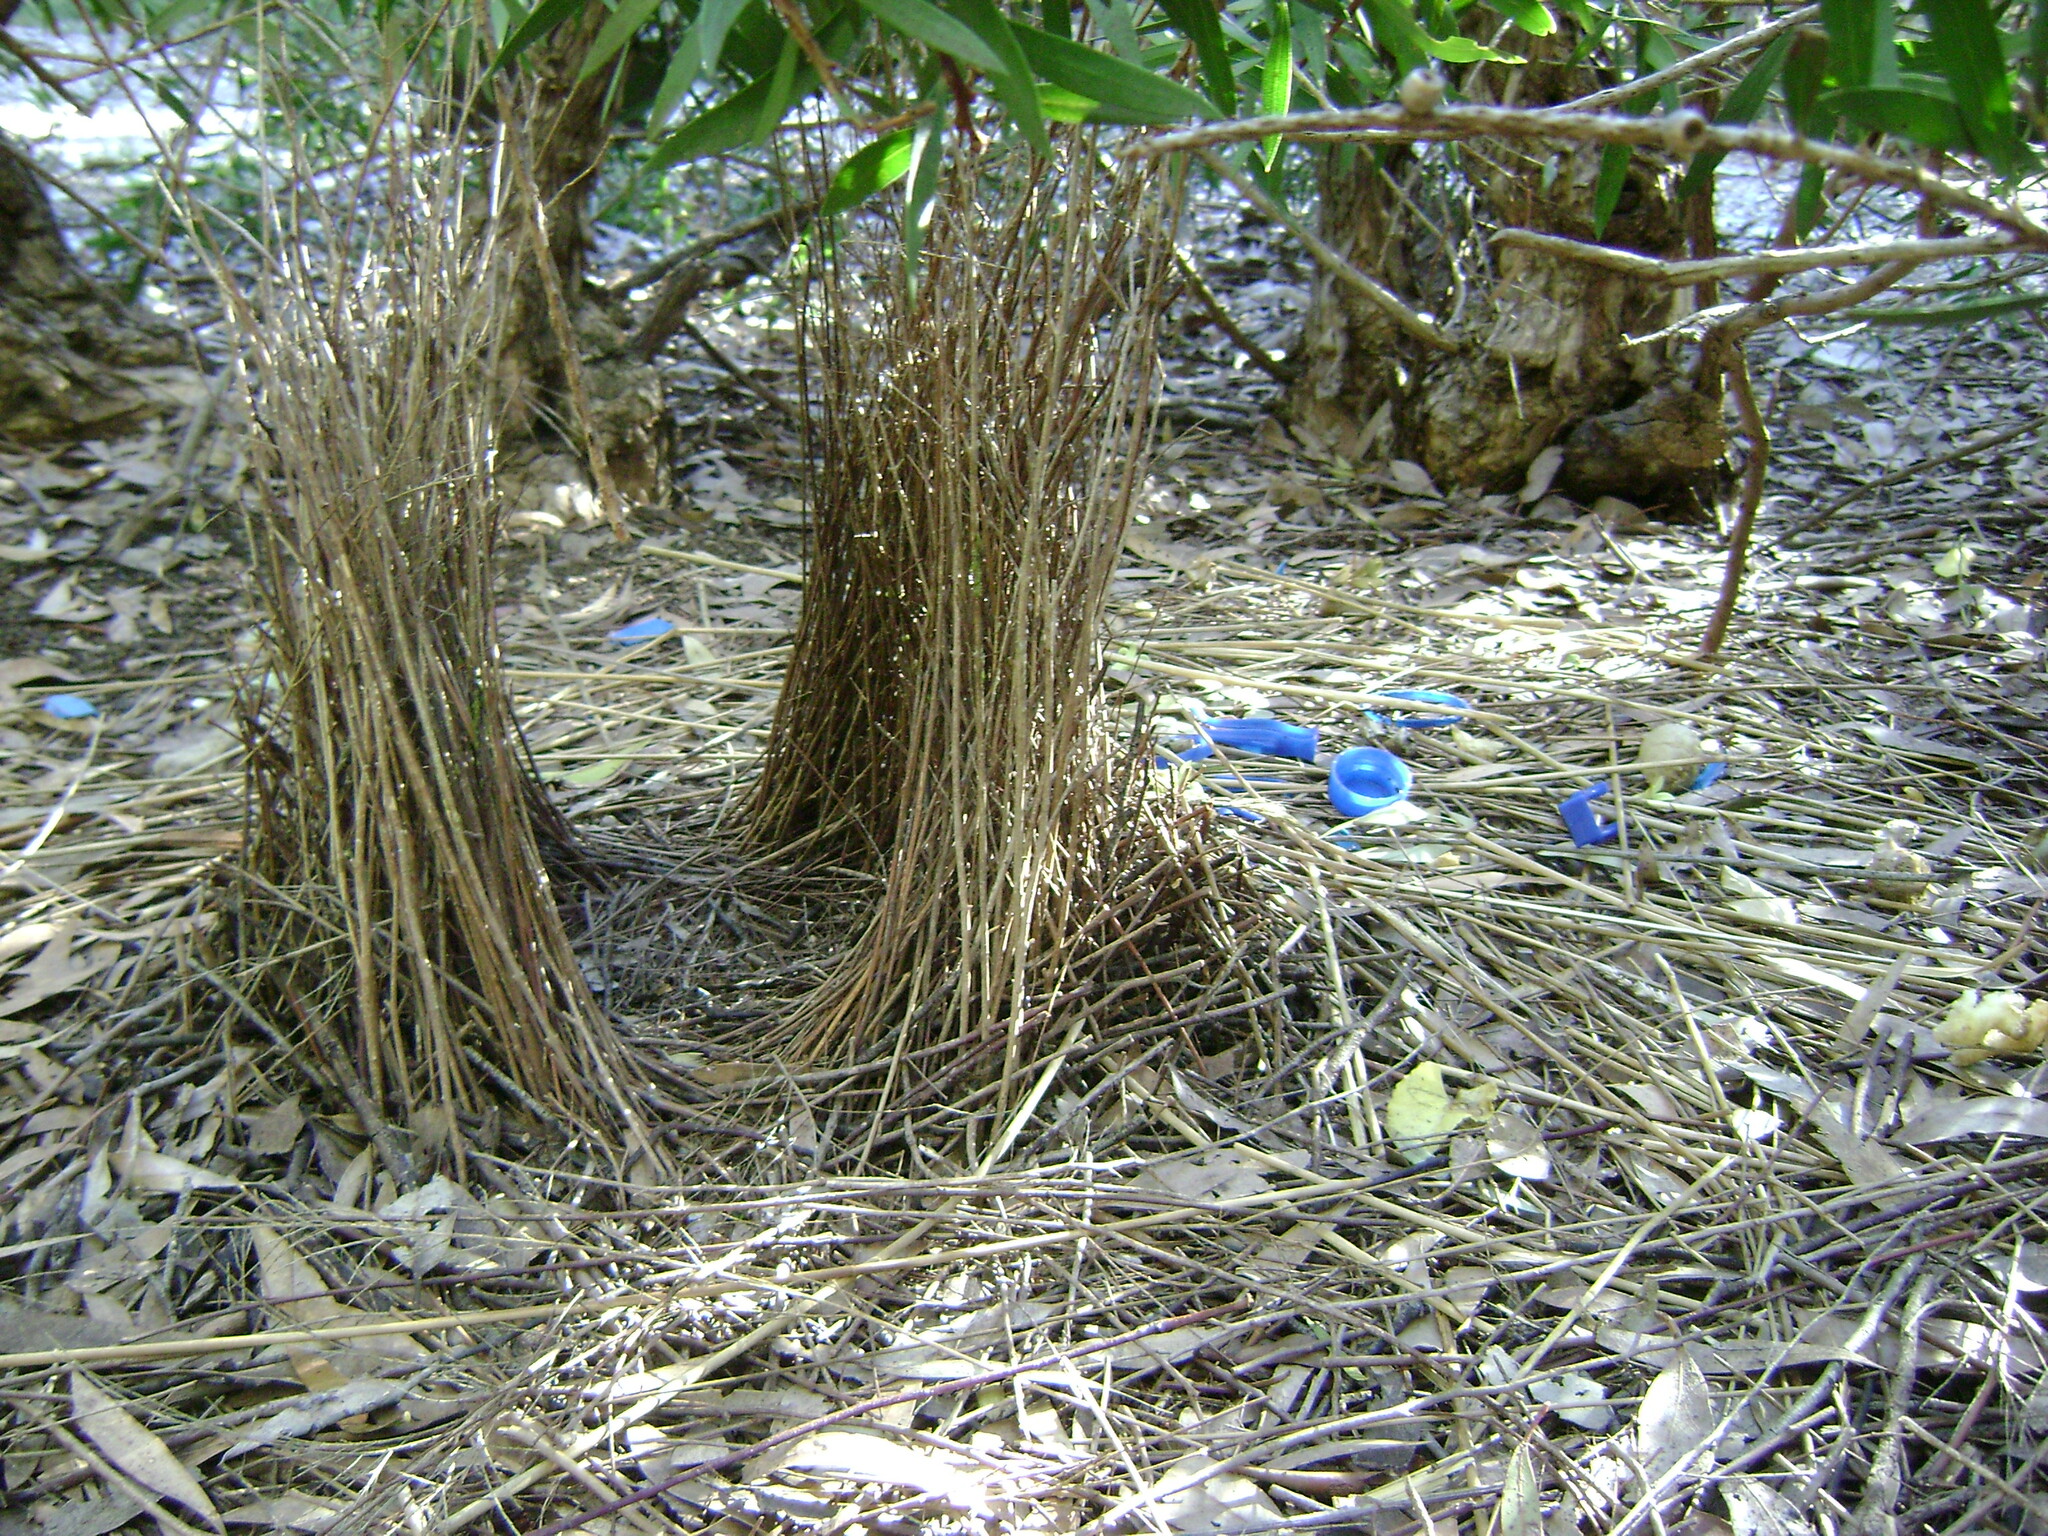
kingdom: Animalia
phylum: Chordata
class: Aves
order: Passeriformes
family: Ptilonorhynchidae
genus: Ptilonorhynchus
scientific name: Ptilonorhynchus violaceus
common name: Satin bowerbird
